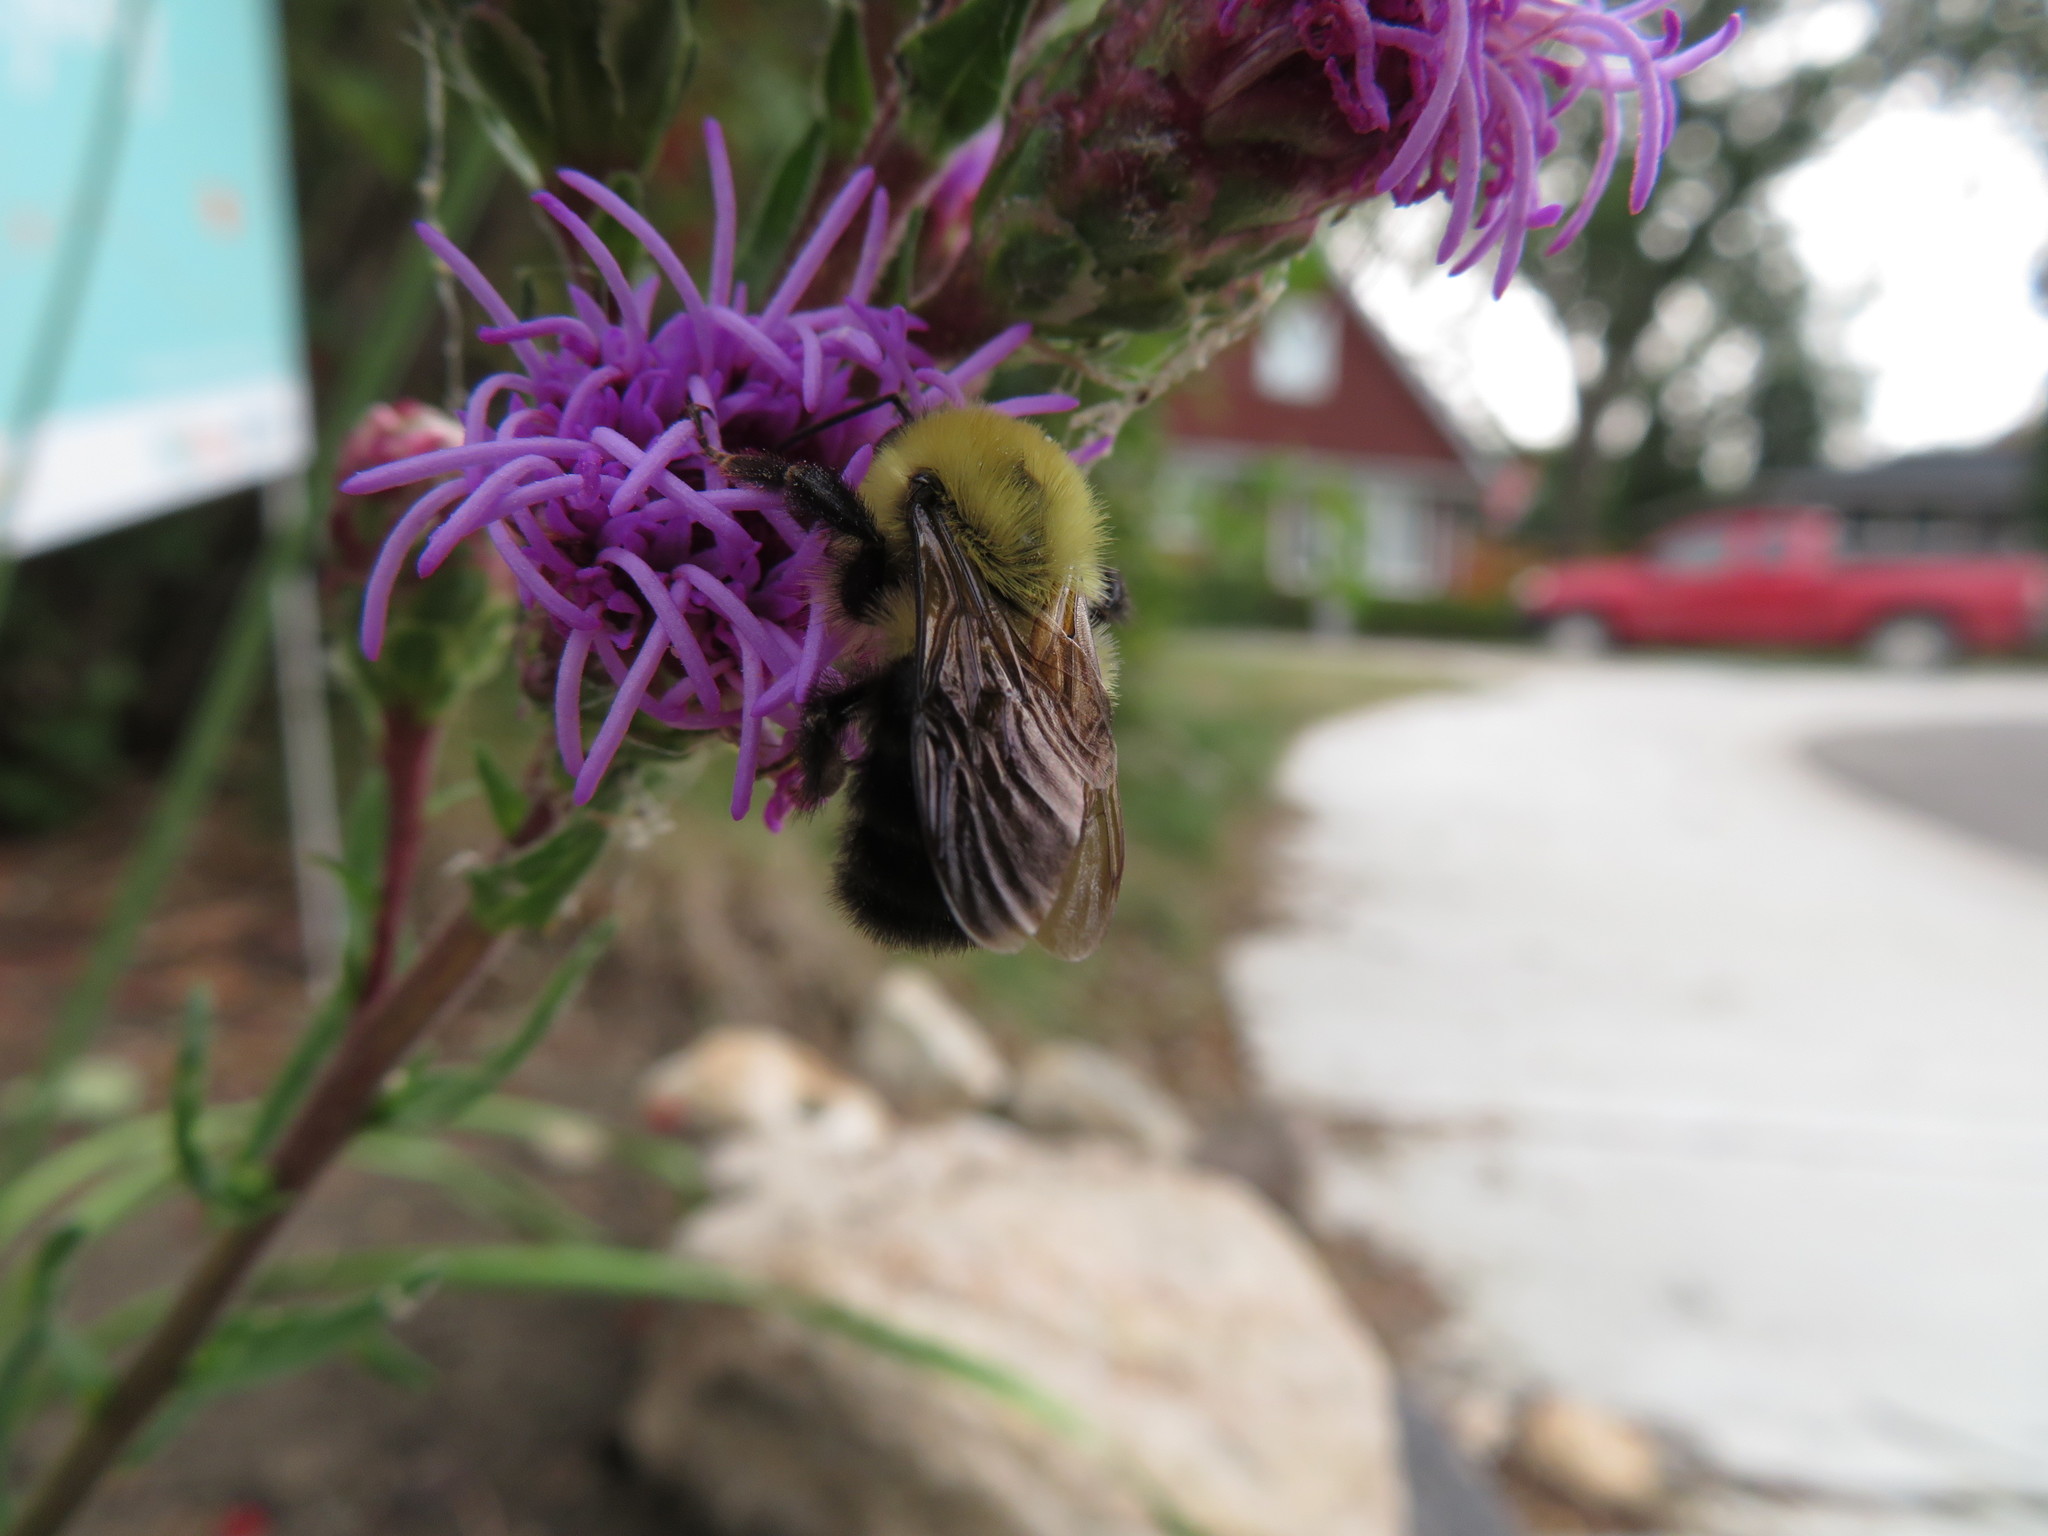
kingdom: Animalia
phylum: Arthropoda
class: Insecta
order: Hymenoptera
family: Apidae
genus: Bombus
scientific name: Bombus bimaculatus
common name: Two-spotted bumble bee
